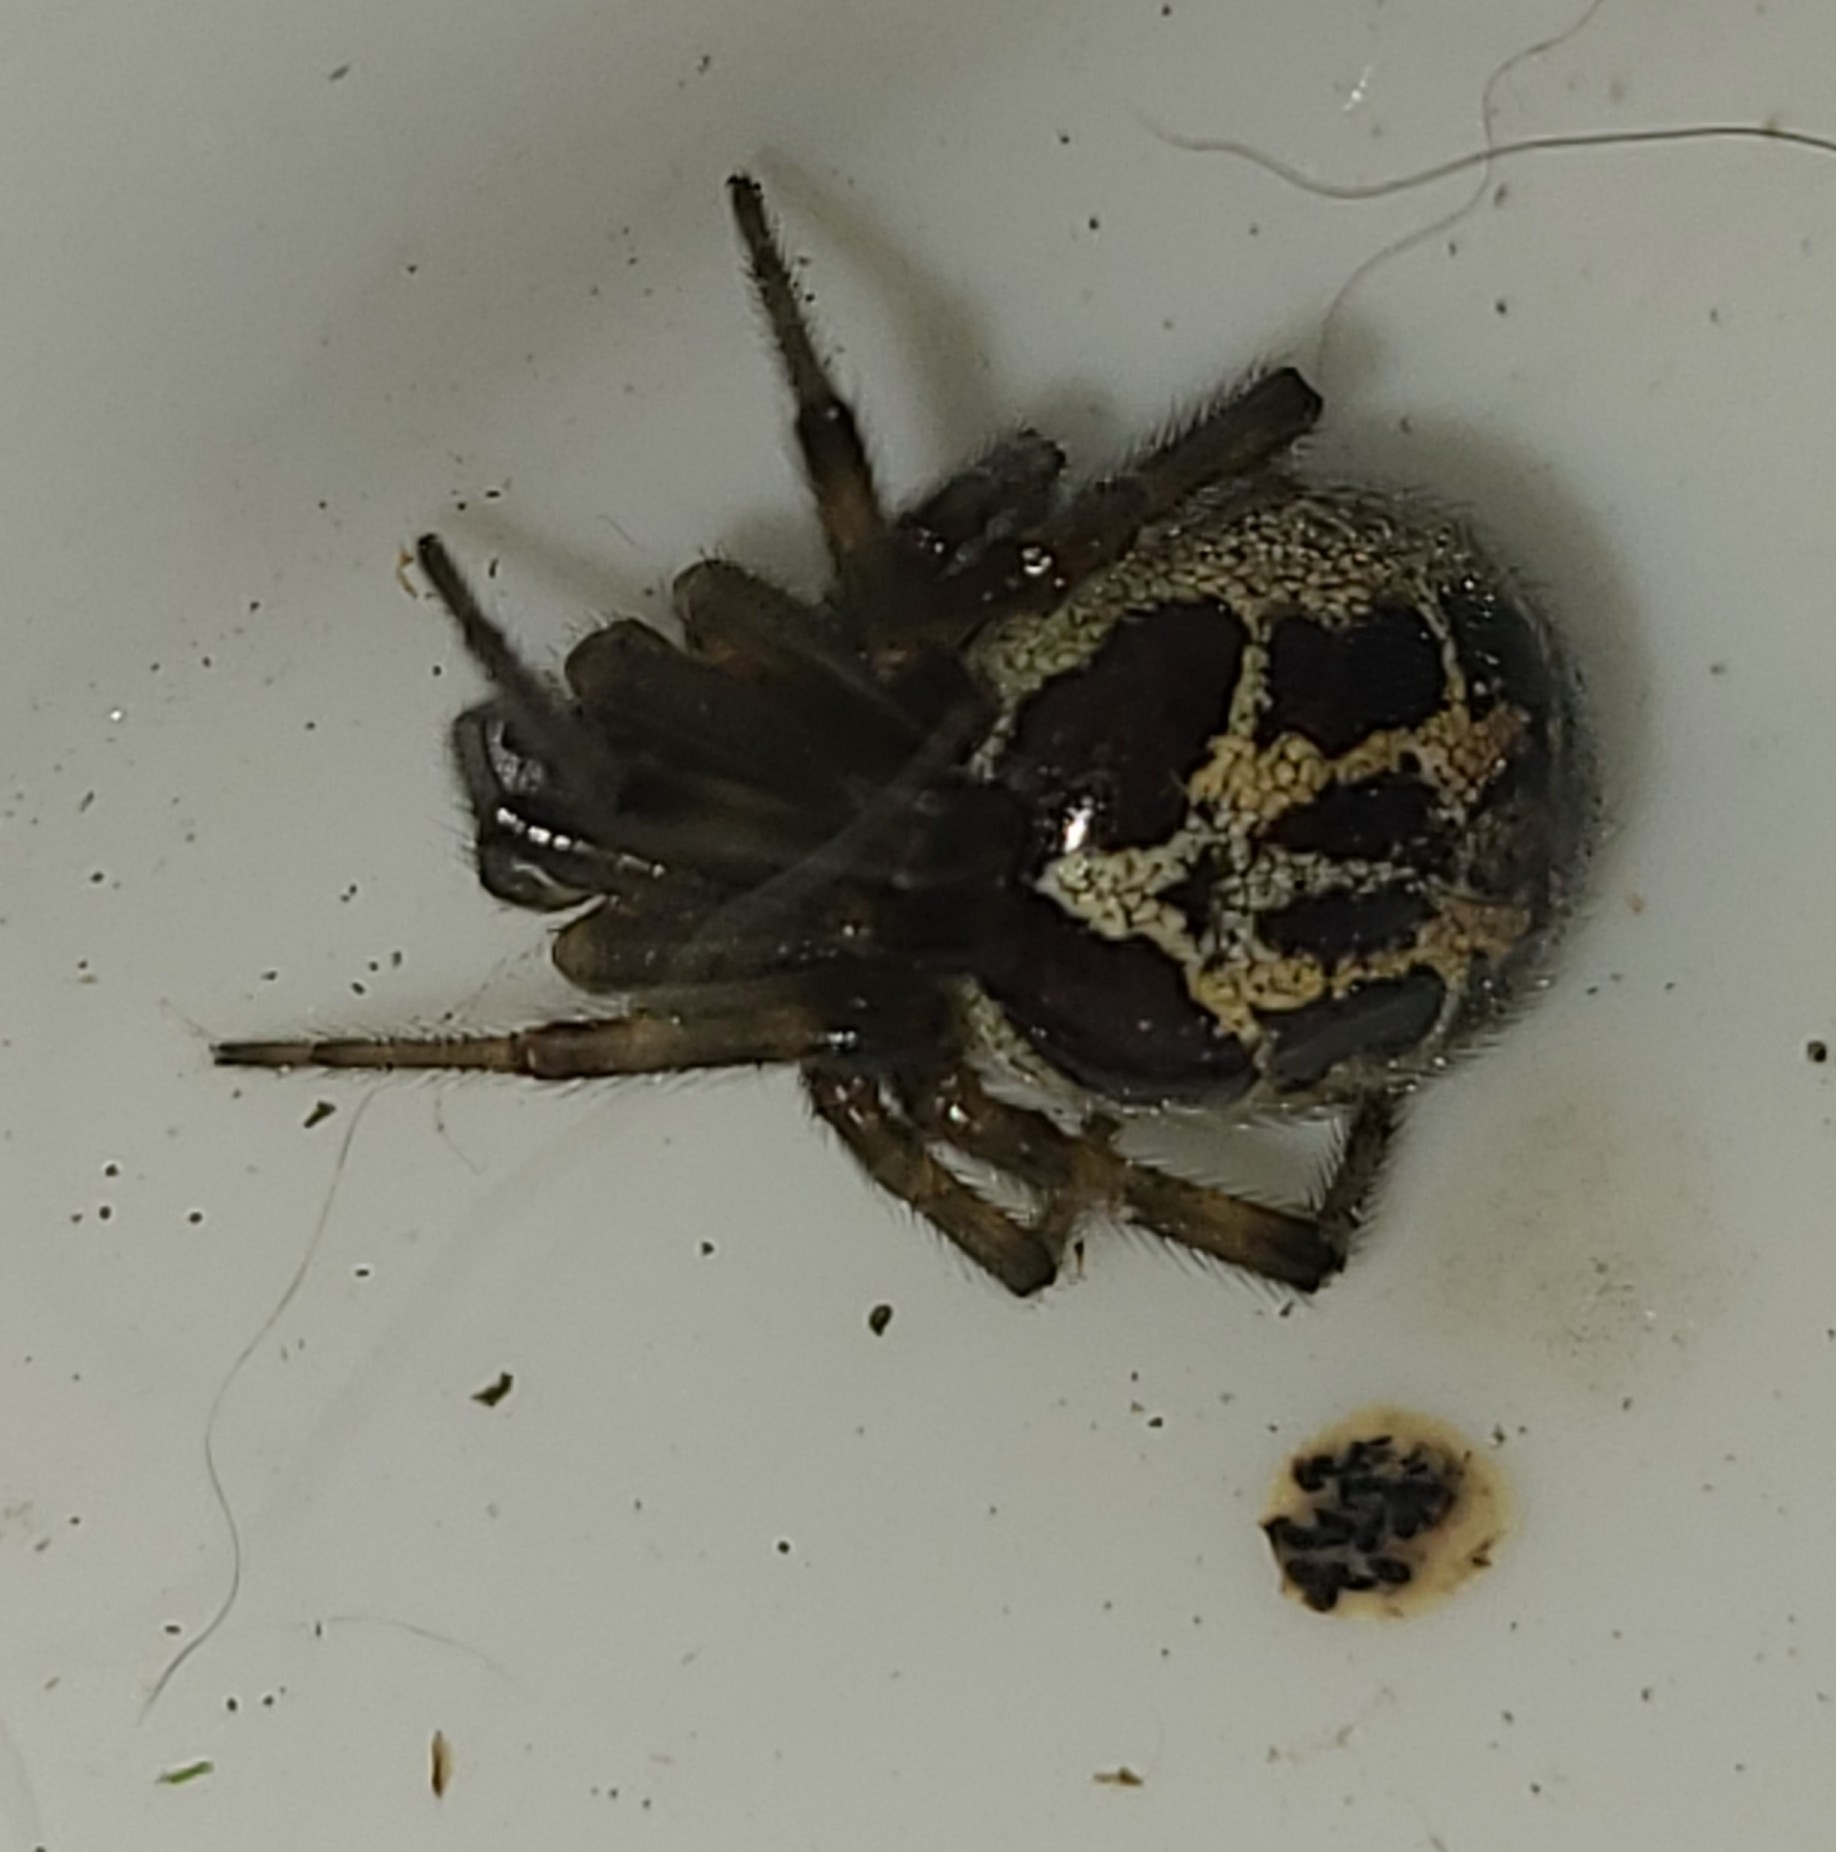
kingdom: Animalia
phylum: Arthropoda
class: Arachnida
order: Araneae
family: Theridiidae
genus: Steatoda
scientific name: Steatoda nobilis
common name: Cobweb weaver
